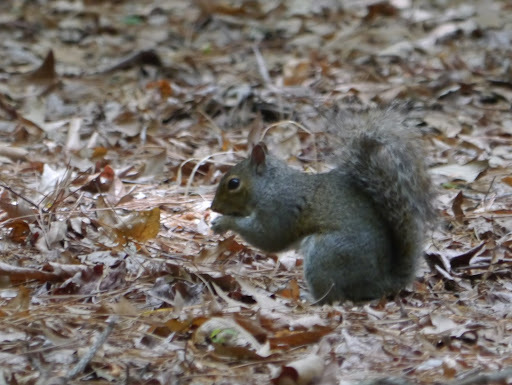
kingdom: Animalia
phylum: Chordata
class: Mammalia
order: Rodentia
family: Sciuridae
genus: Sciurus
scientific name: Sciurus carolinensis
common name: Eastern gray squirrel
